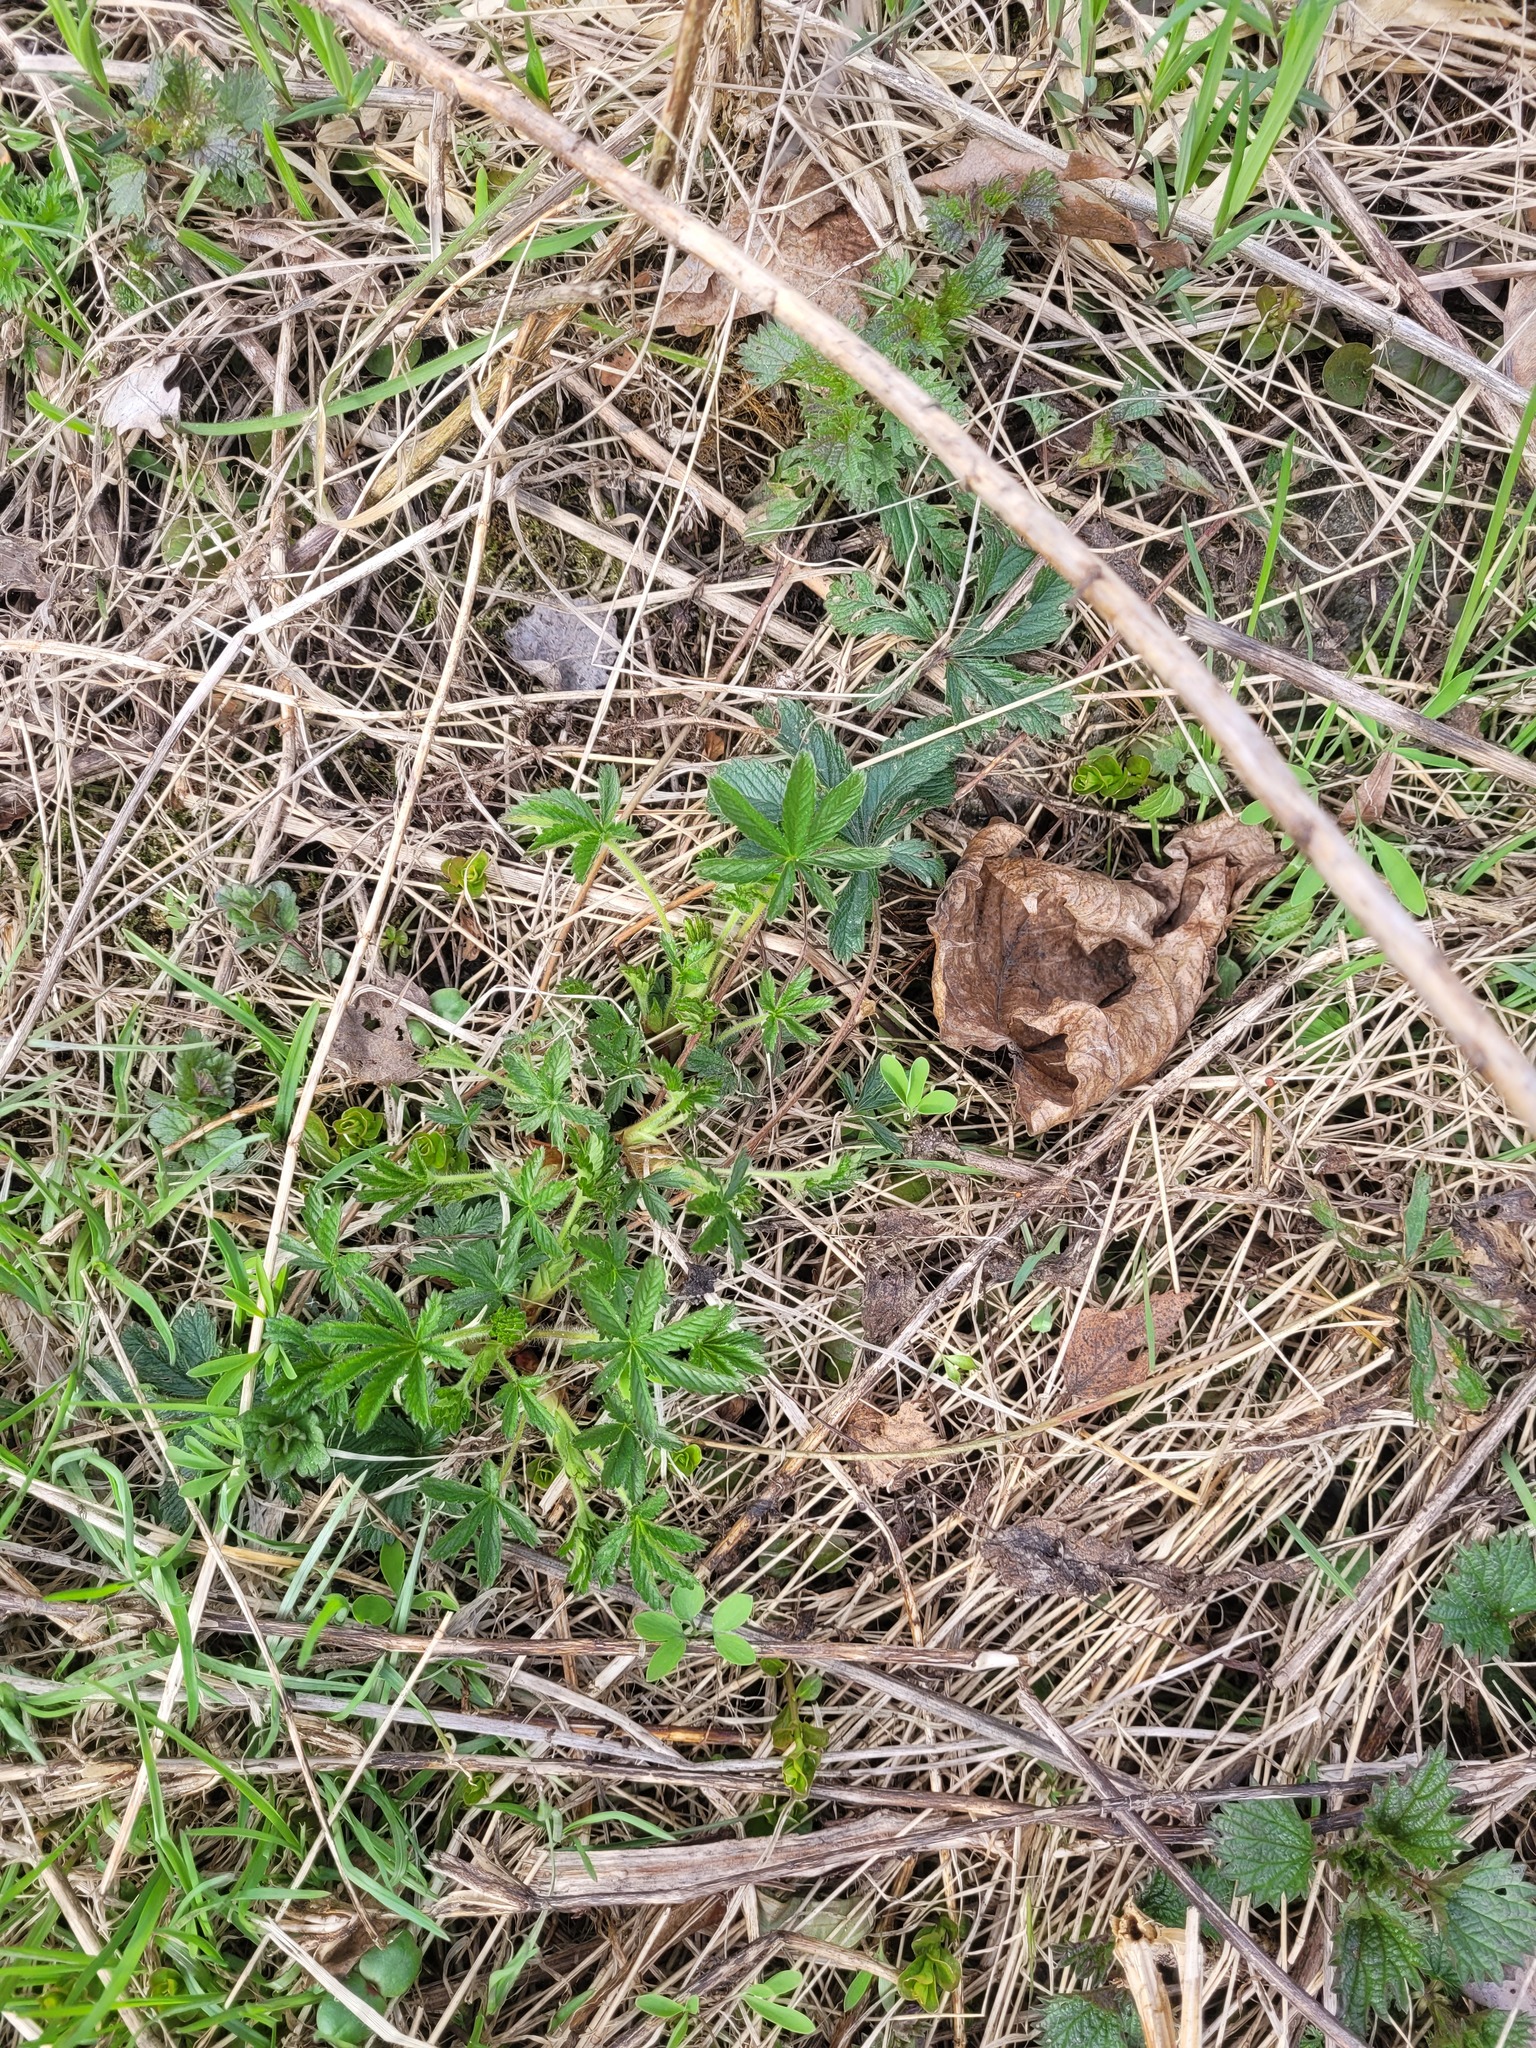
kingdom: Plantae
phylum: Tracheophyta
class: Magnoliopsida
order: Rosales
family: Rosaceae
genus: Potentilla
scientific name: Potentilla thuringiaca
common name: European cinquefoil
